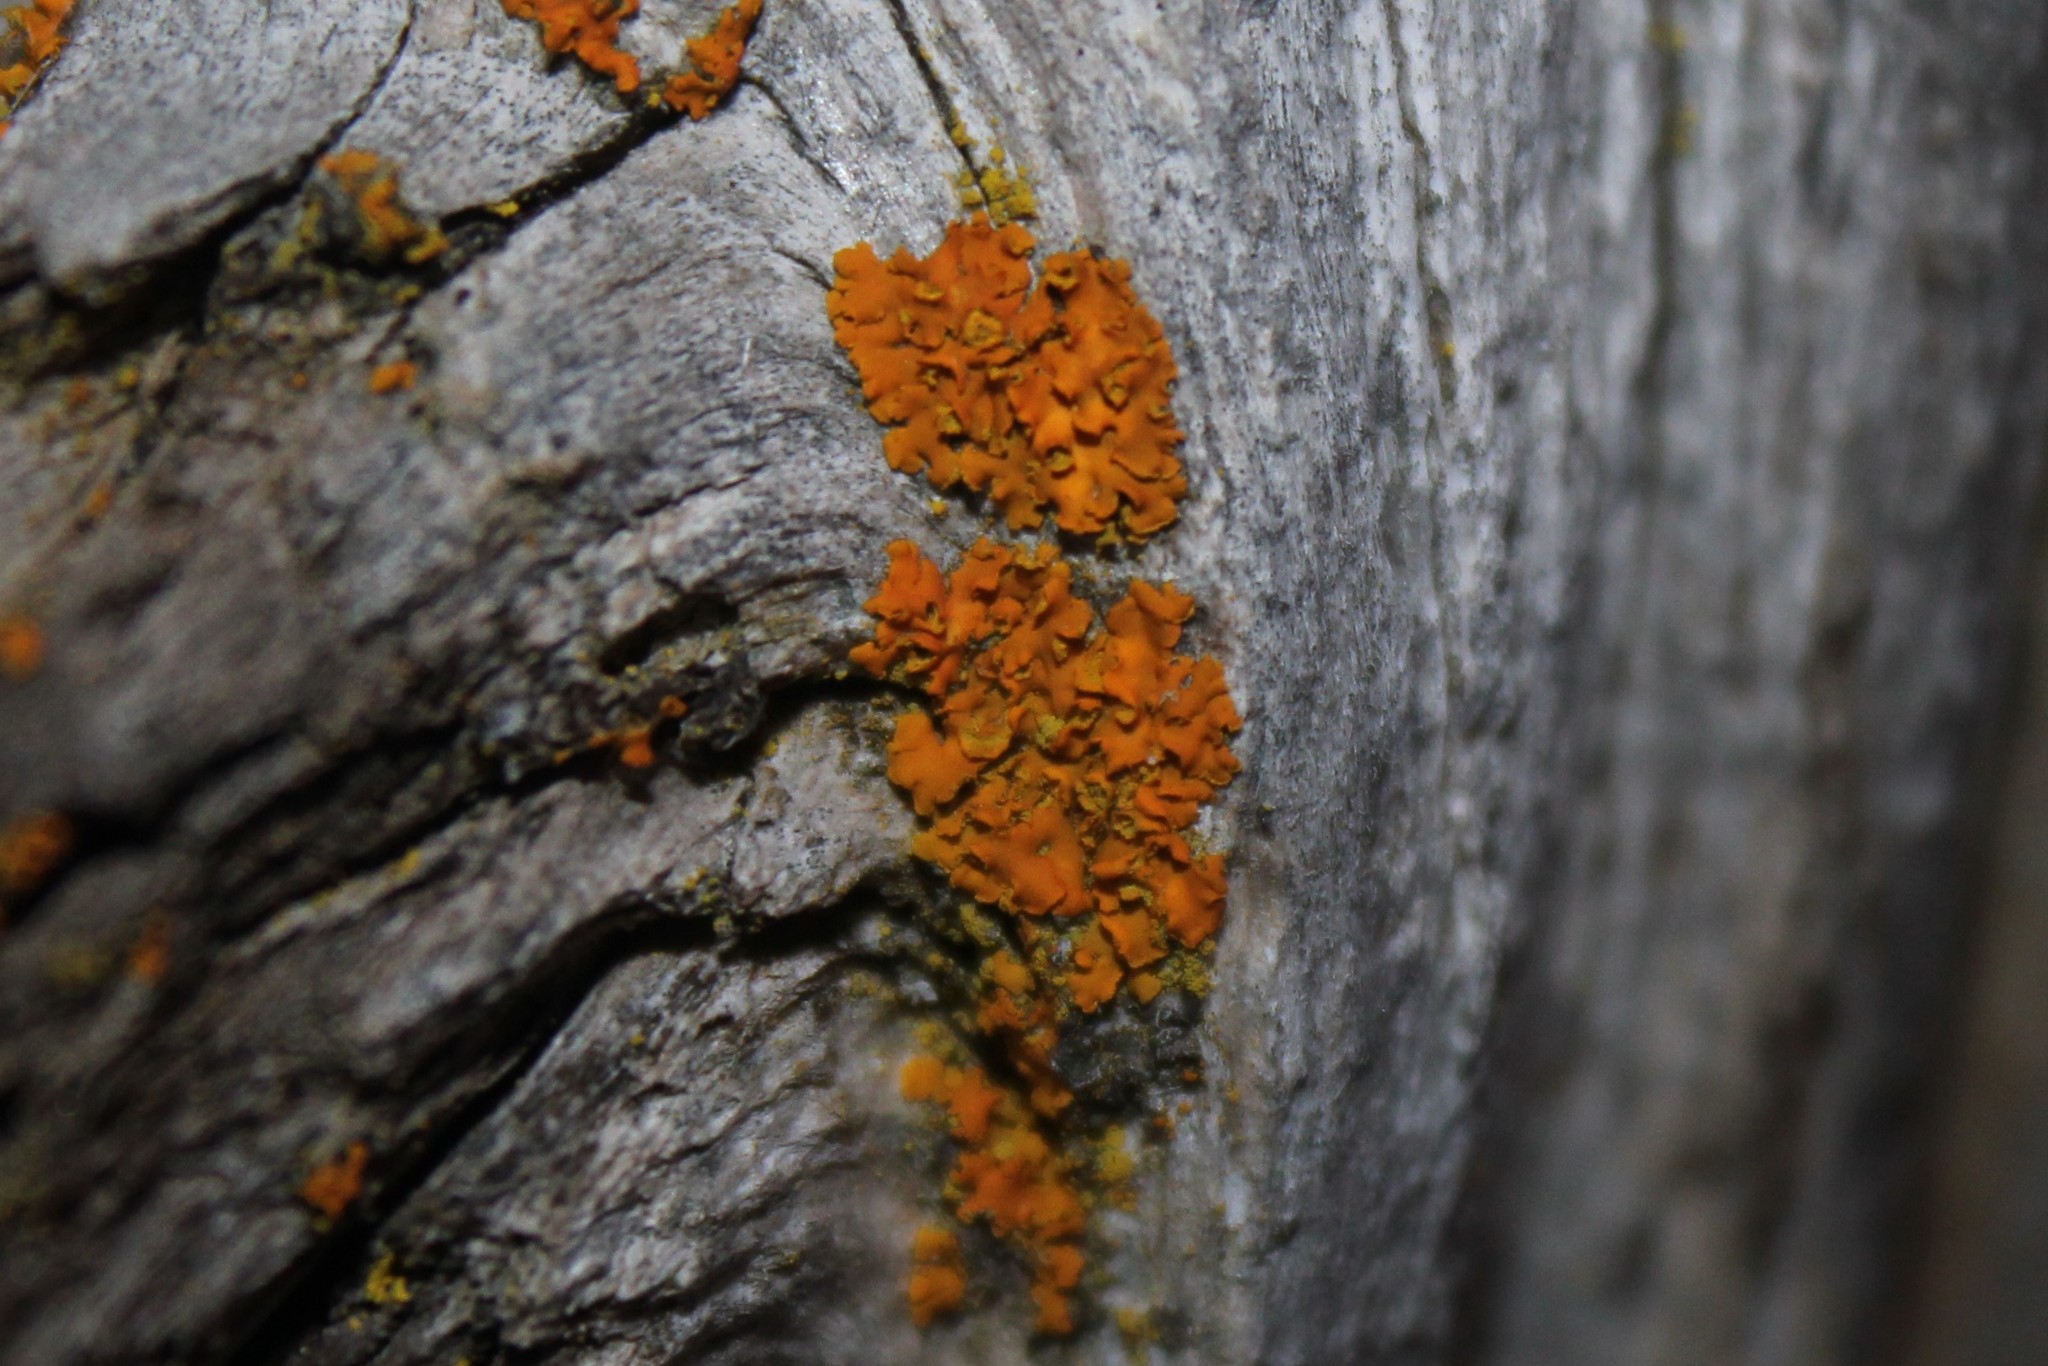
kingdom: Fungi
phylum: Ascomycota
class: Lecanoromycetes
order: Teloschistales
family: Teloschistaceae
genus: Oxneria
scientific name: Oxneria fallax
